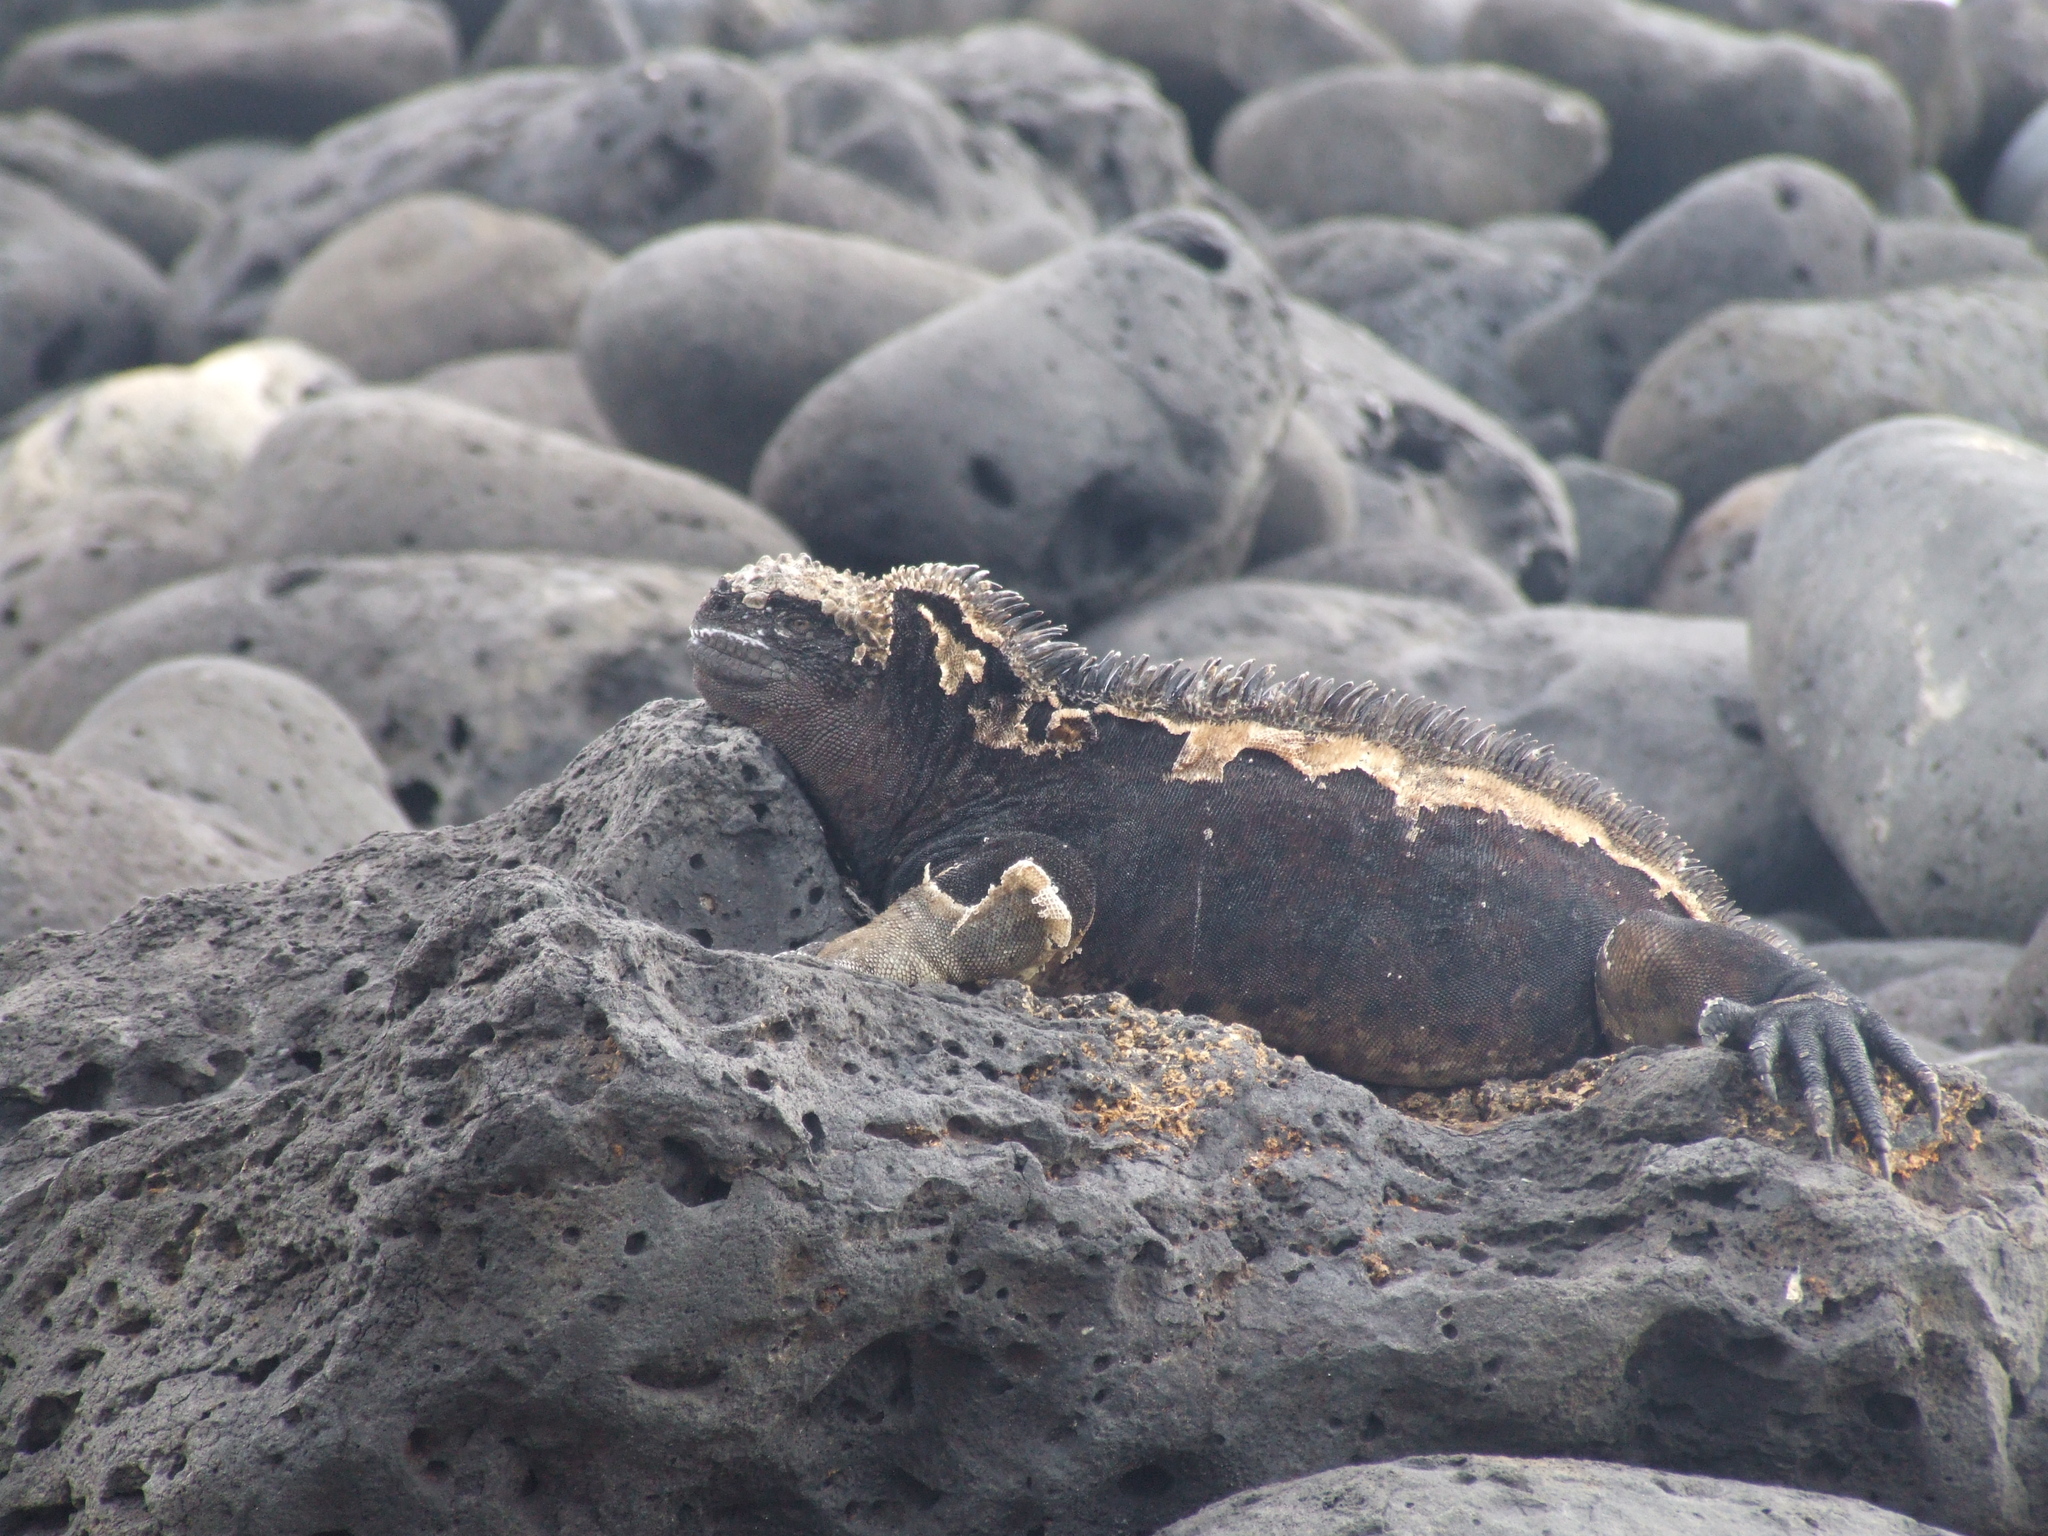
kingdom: Animalia
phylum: Chordata
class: Squamata
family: Iguanidae
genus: Amblyrhynchus
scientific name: Amblyrhynchus cristatus
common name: Marine iguana
